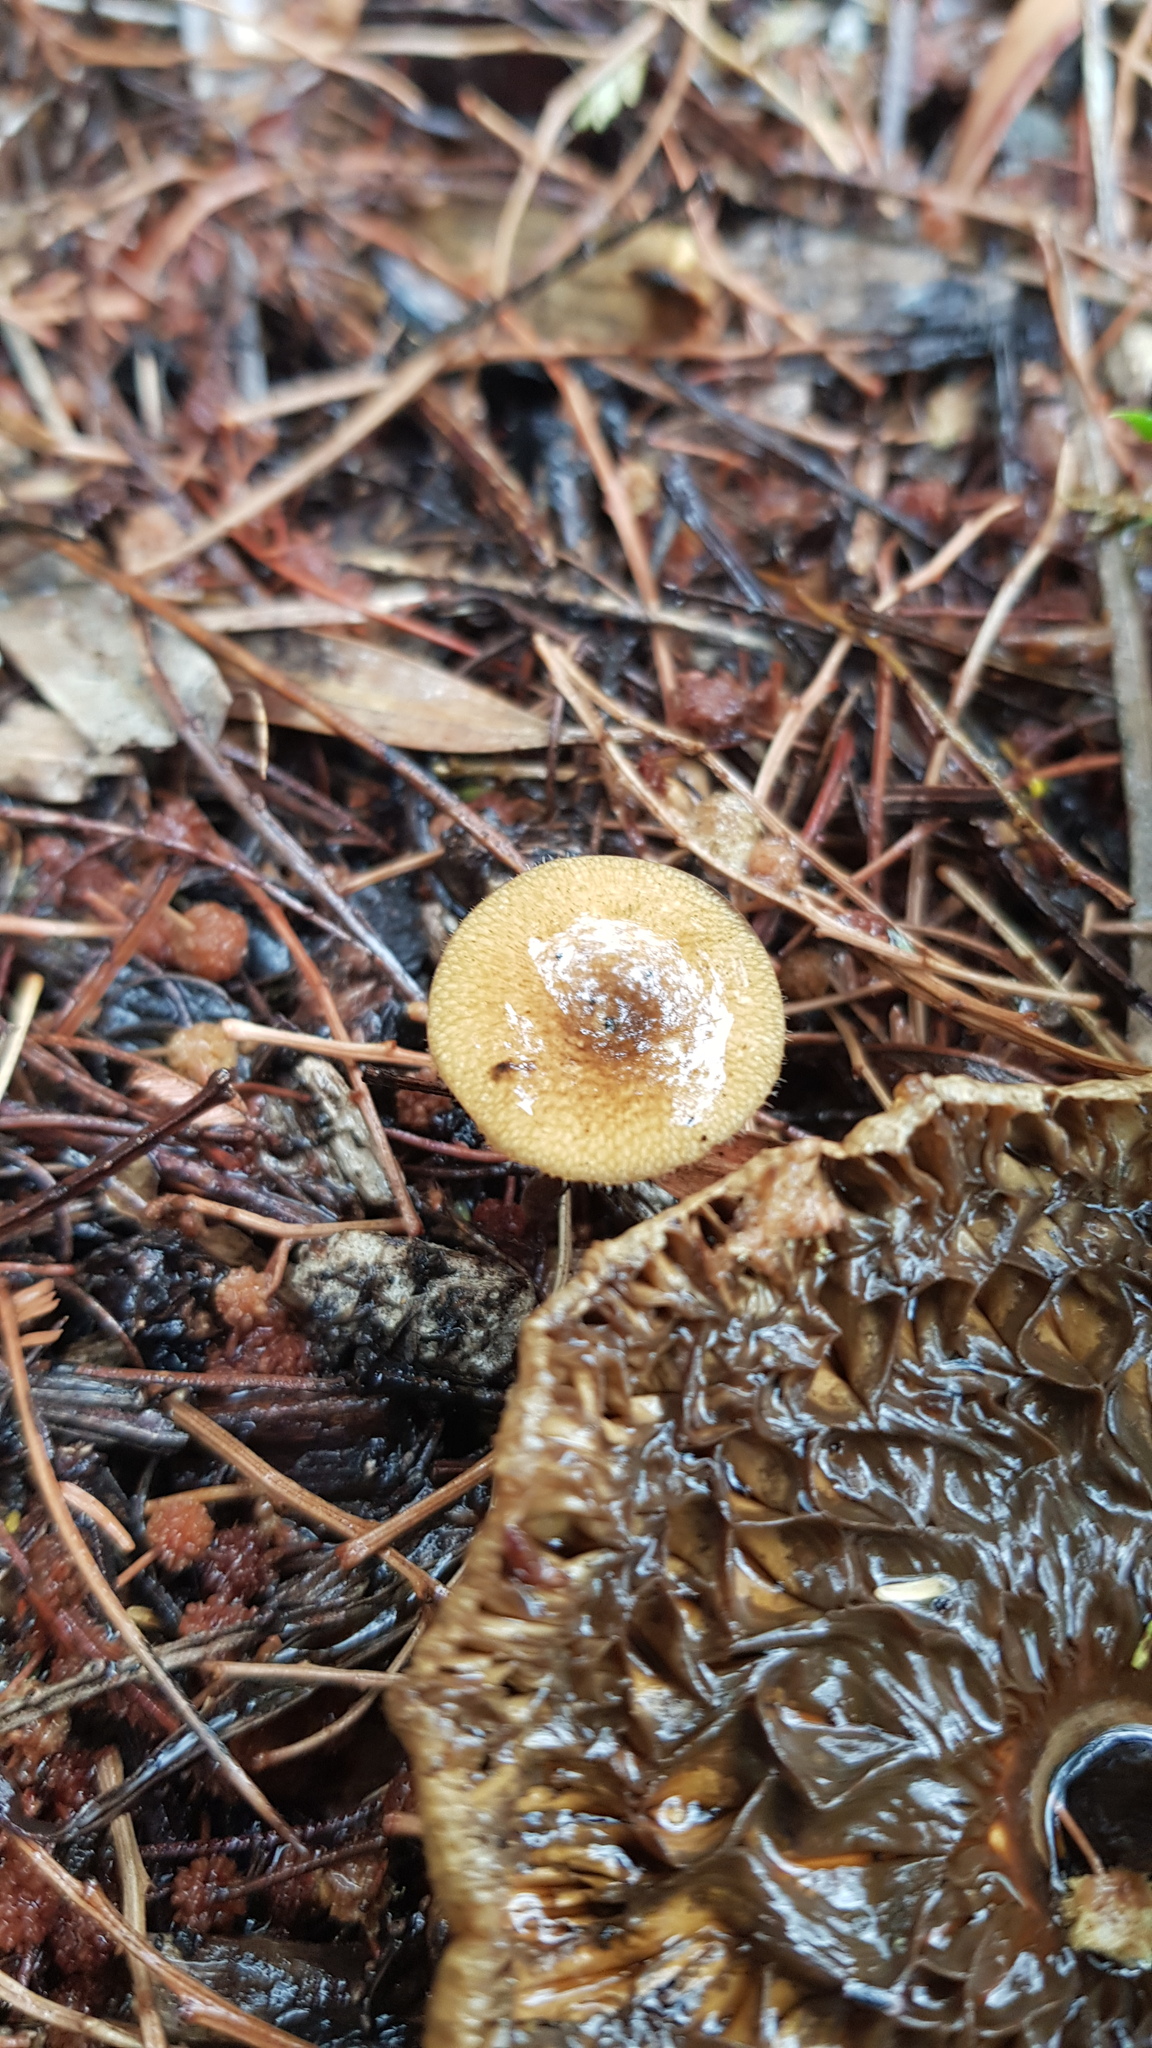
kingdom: Fungi
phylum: Basidiomycota
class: Agaricomycetes
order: Polyporales
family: Polyporaceae
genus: Lentinus
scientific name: Lentinus arcularius
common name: Spring polypore
